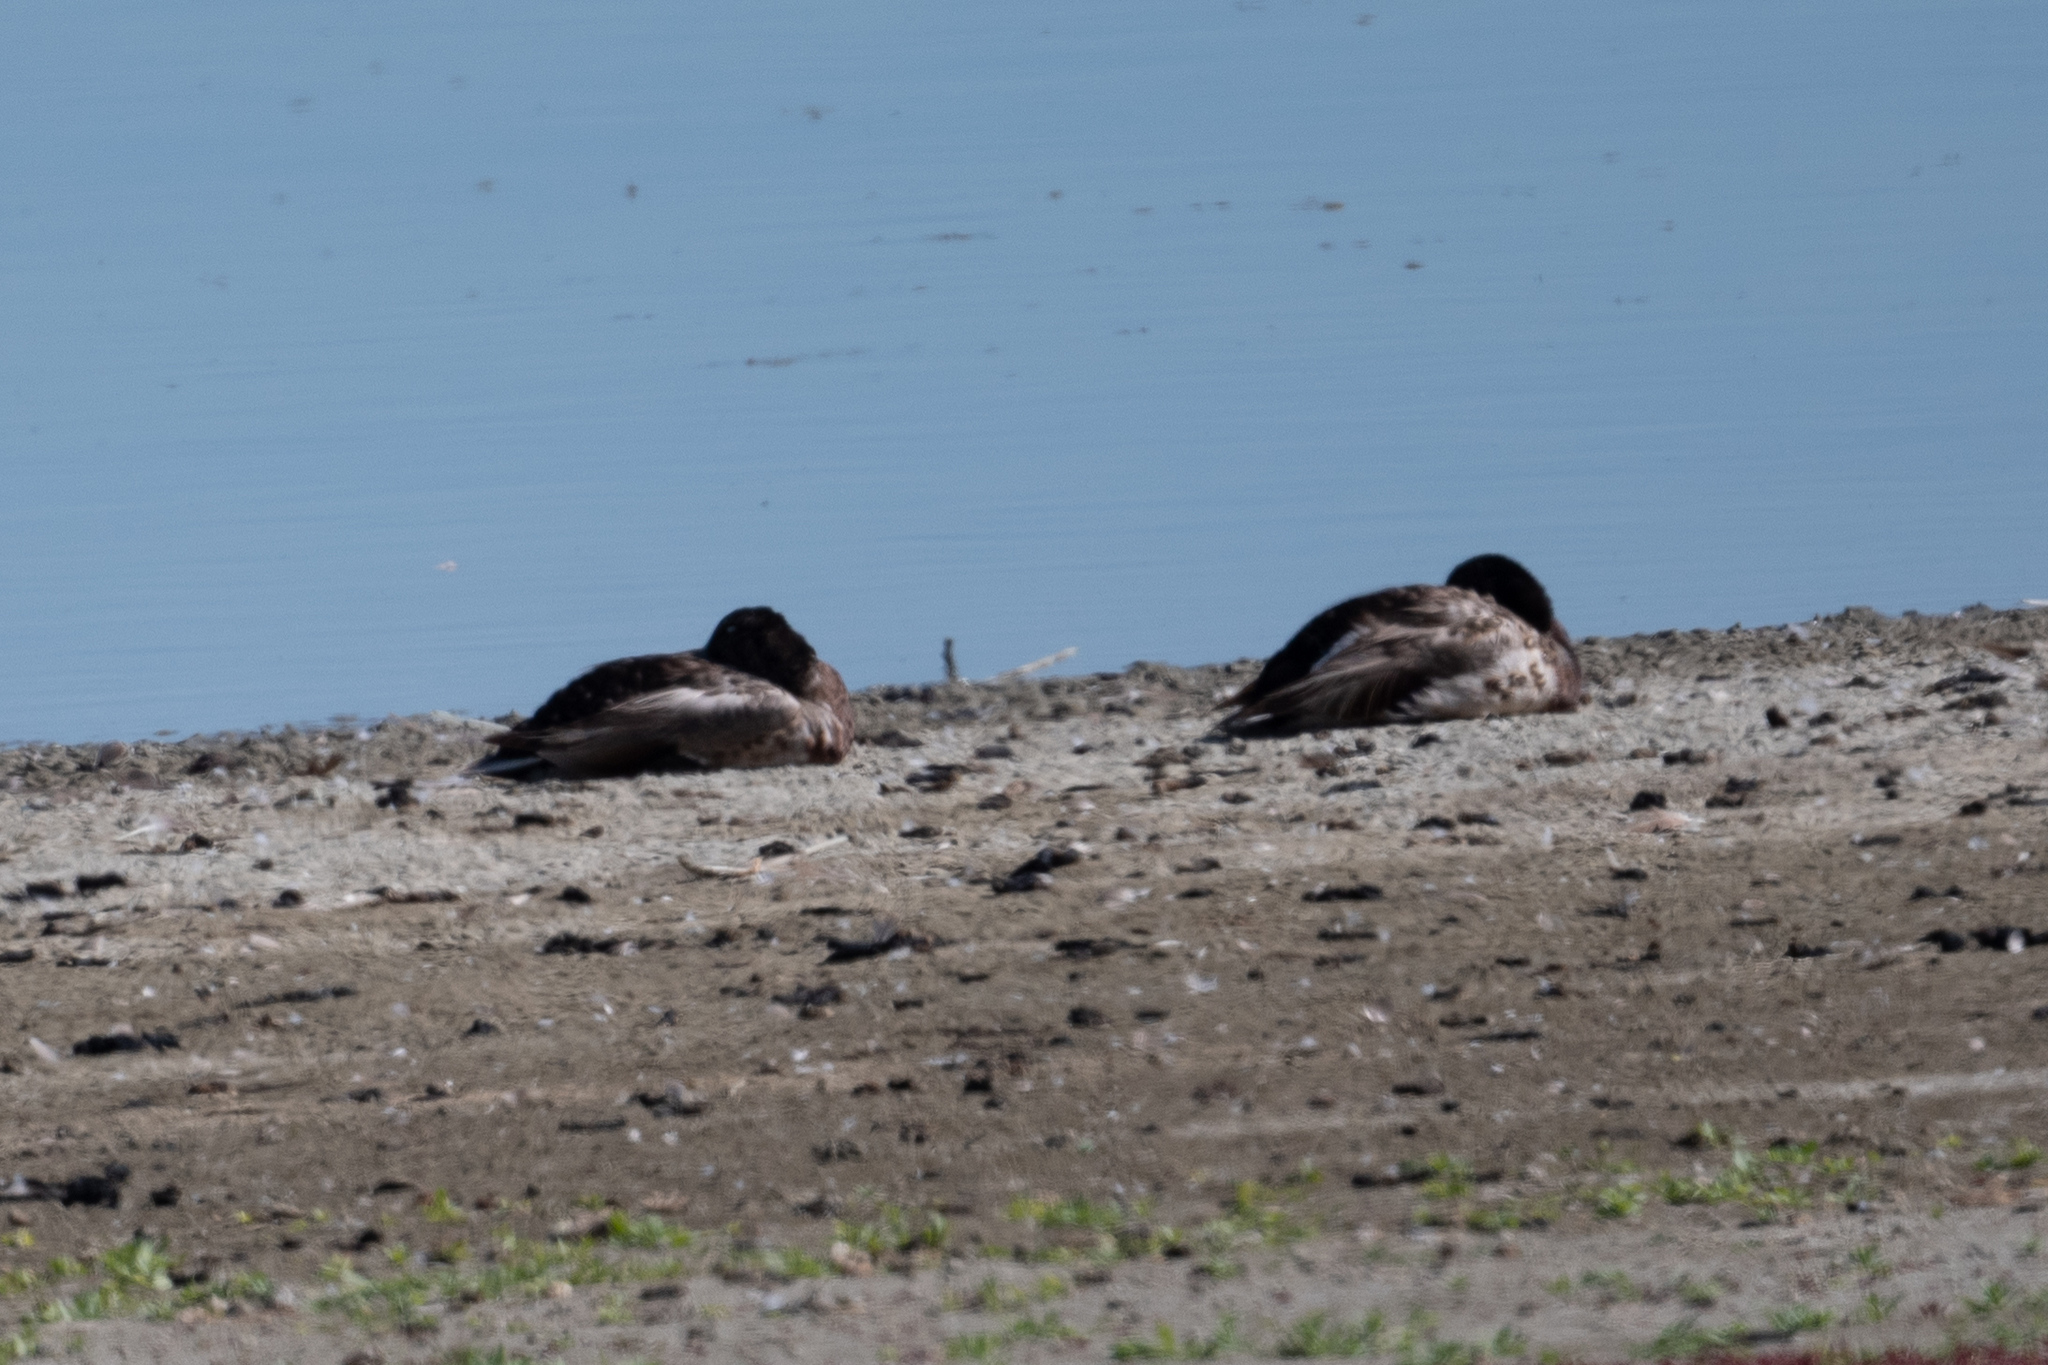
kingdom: Animalia
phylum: Chordata
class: Aves
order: Anseriformes
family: Anatidae
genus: Anas
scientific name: Anas platyrhynchos
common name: Mallard
